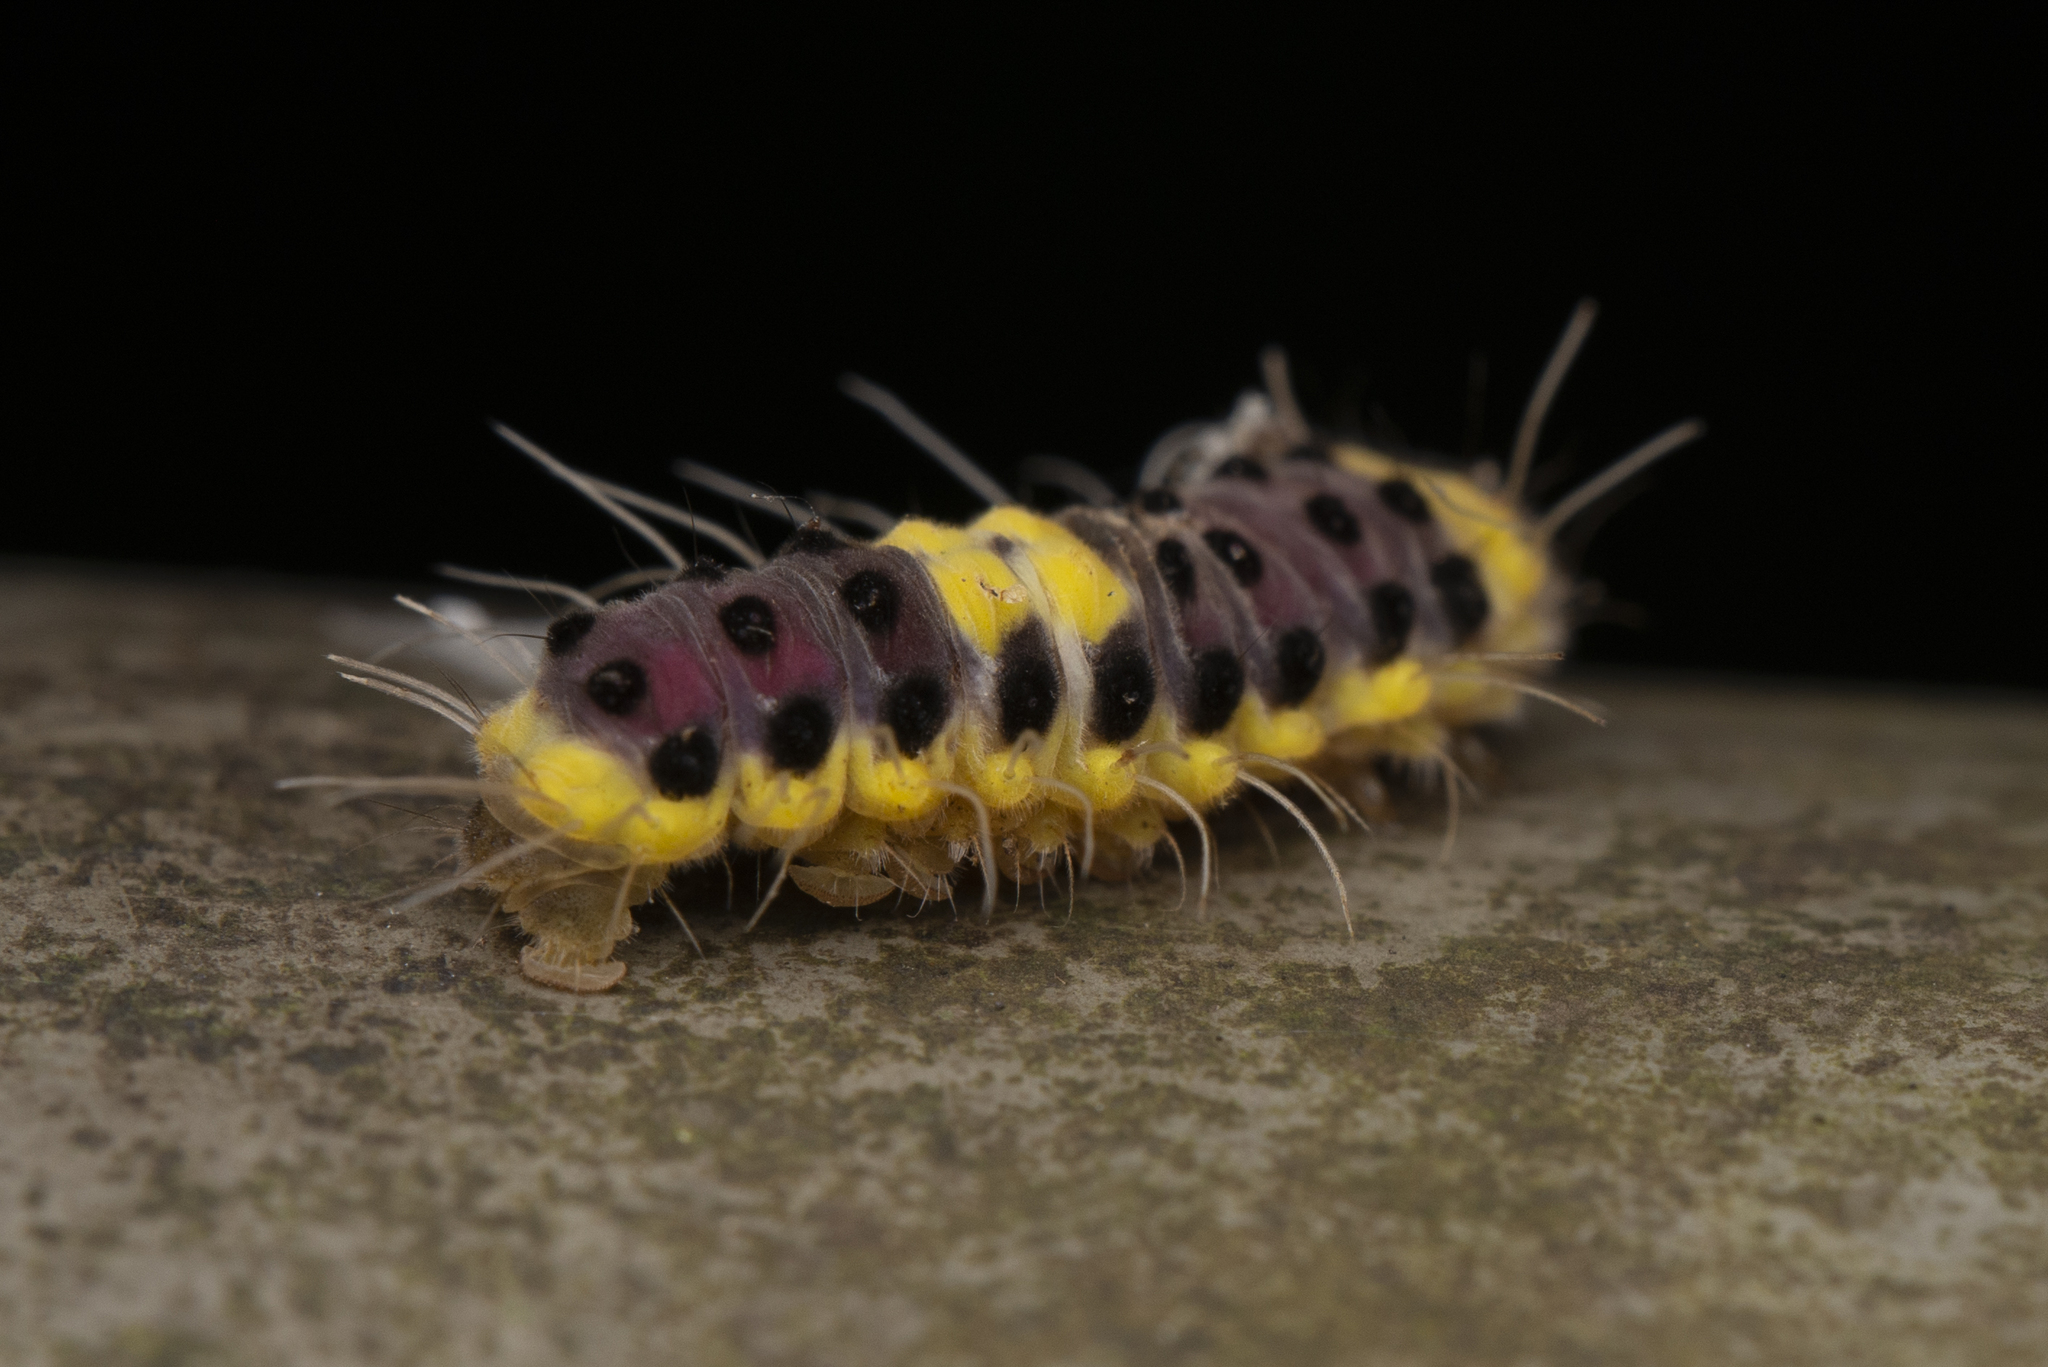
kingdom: Animalia
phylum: Arthropoda
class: Insecta
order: Lepidoptera
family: Zygaenidae
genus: Retina
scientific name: Retina rubrivitta
